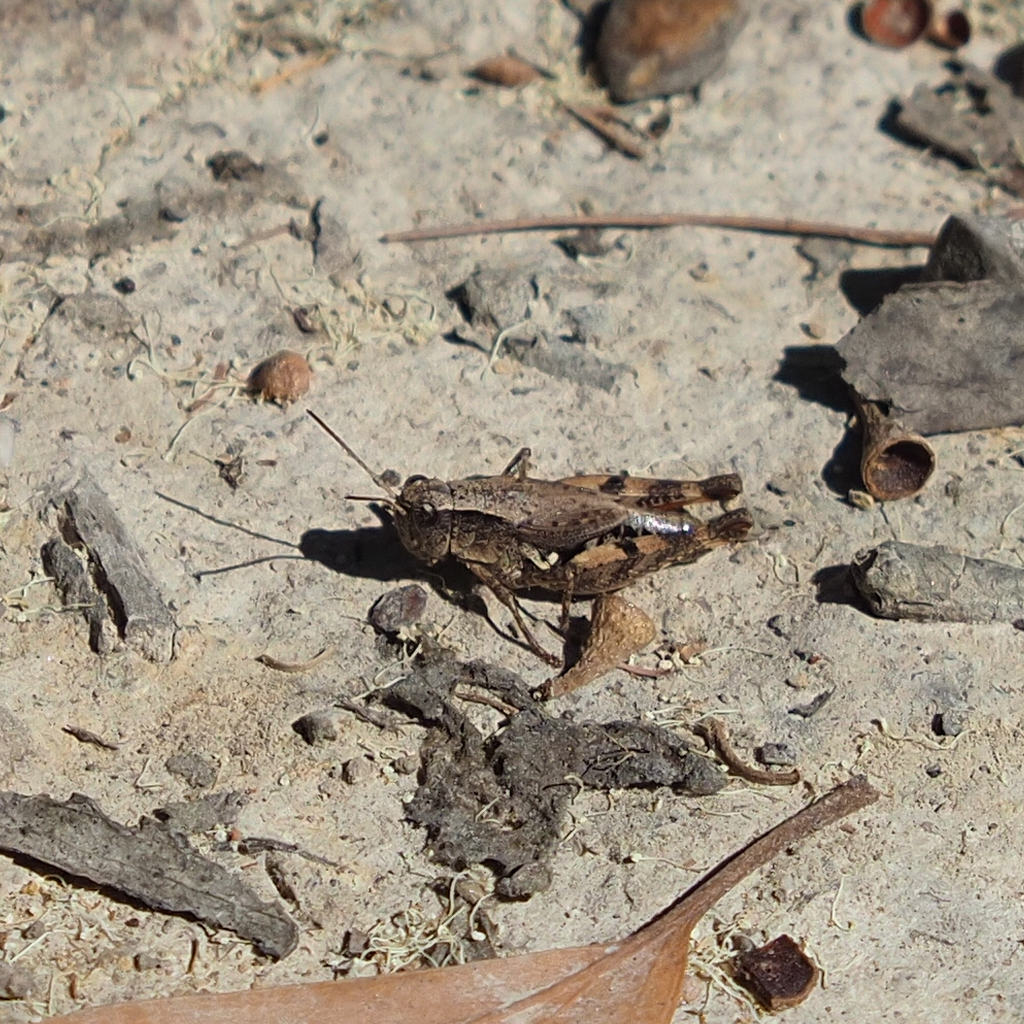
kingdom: Animalia
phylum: Arthropoda
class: Insecta
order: Orthoptera
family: Acrididae
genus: Phaulacridium
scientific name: Phaulacridium vittatum
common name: Wingless grasshopper
